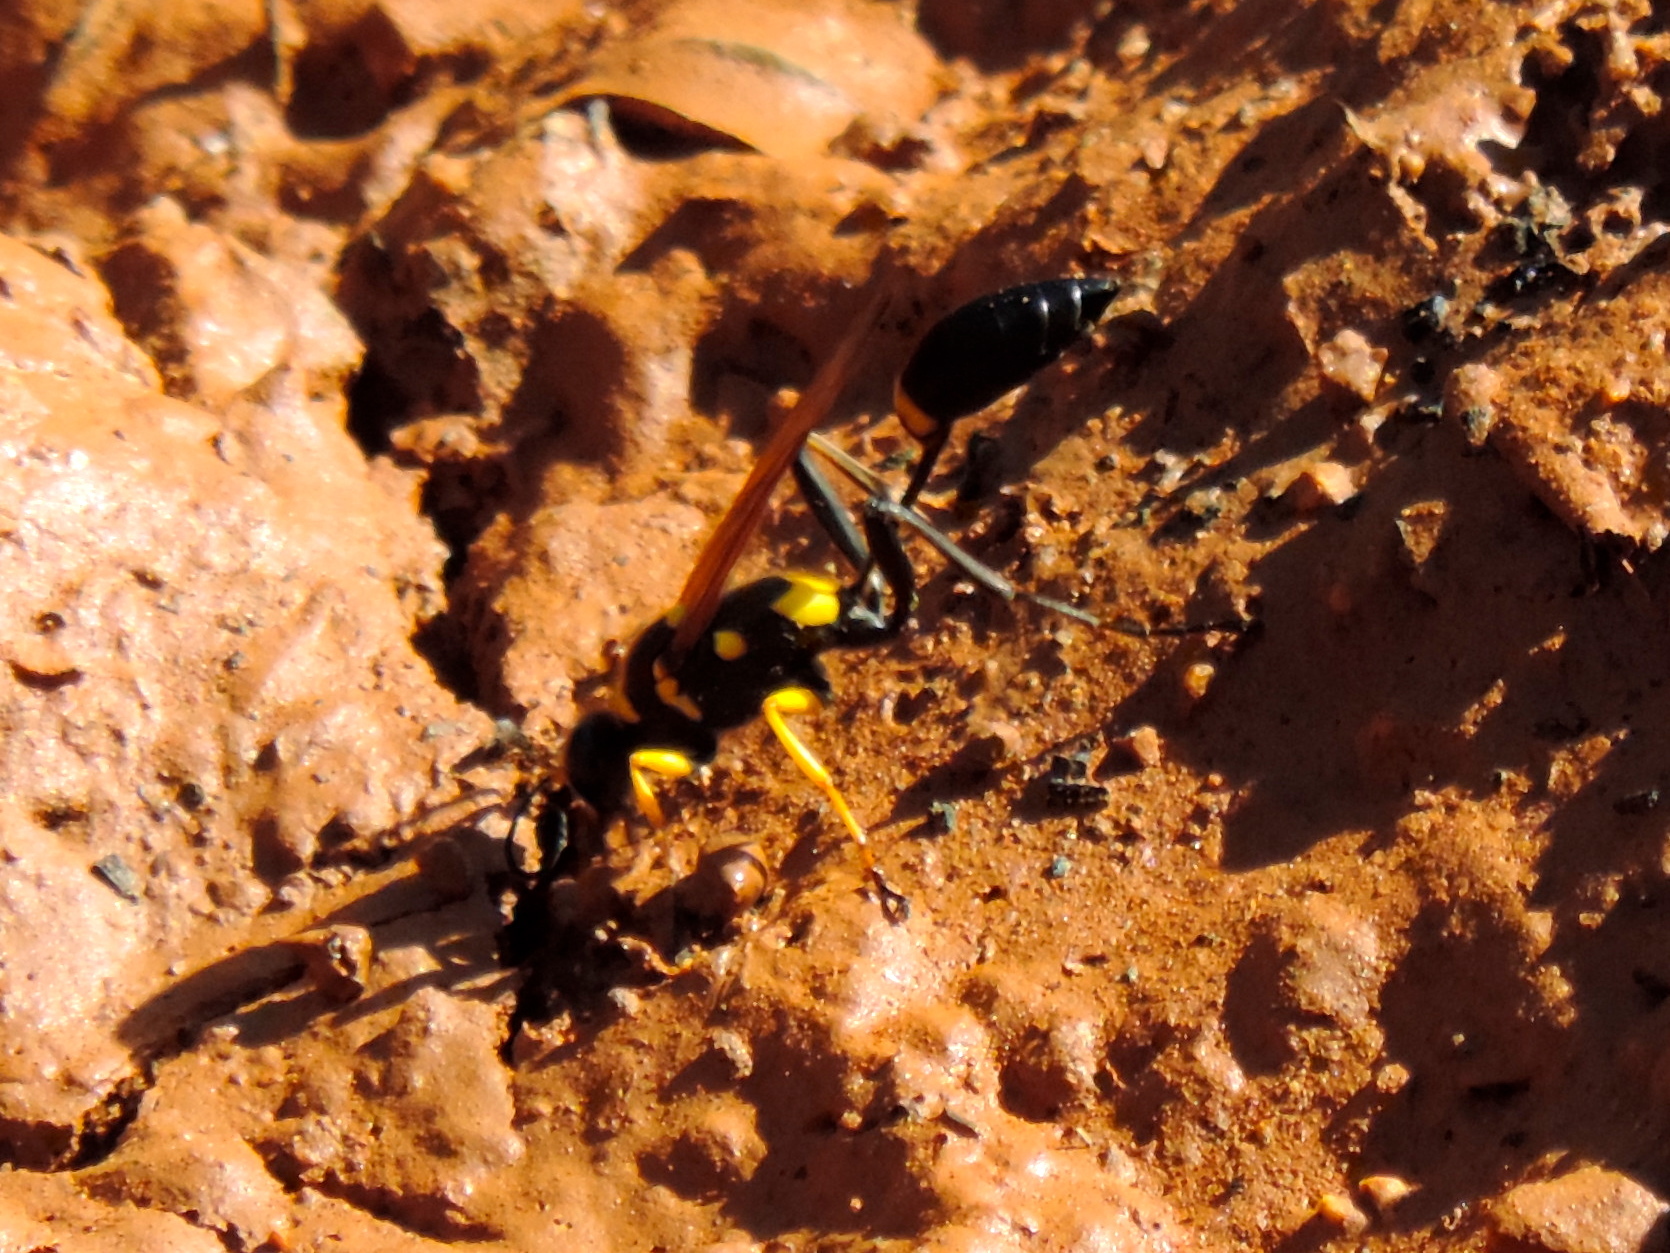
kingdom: Animalia
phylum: Arthropoda
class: Insecta
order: Hymenoptera
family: Sphecidae
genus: Sceliphron
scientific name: Sceliphron assimile
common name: Clayman's mud dauber
